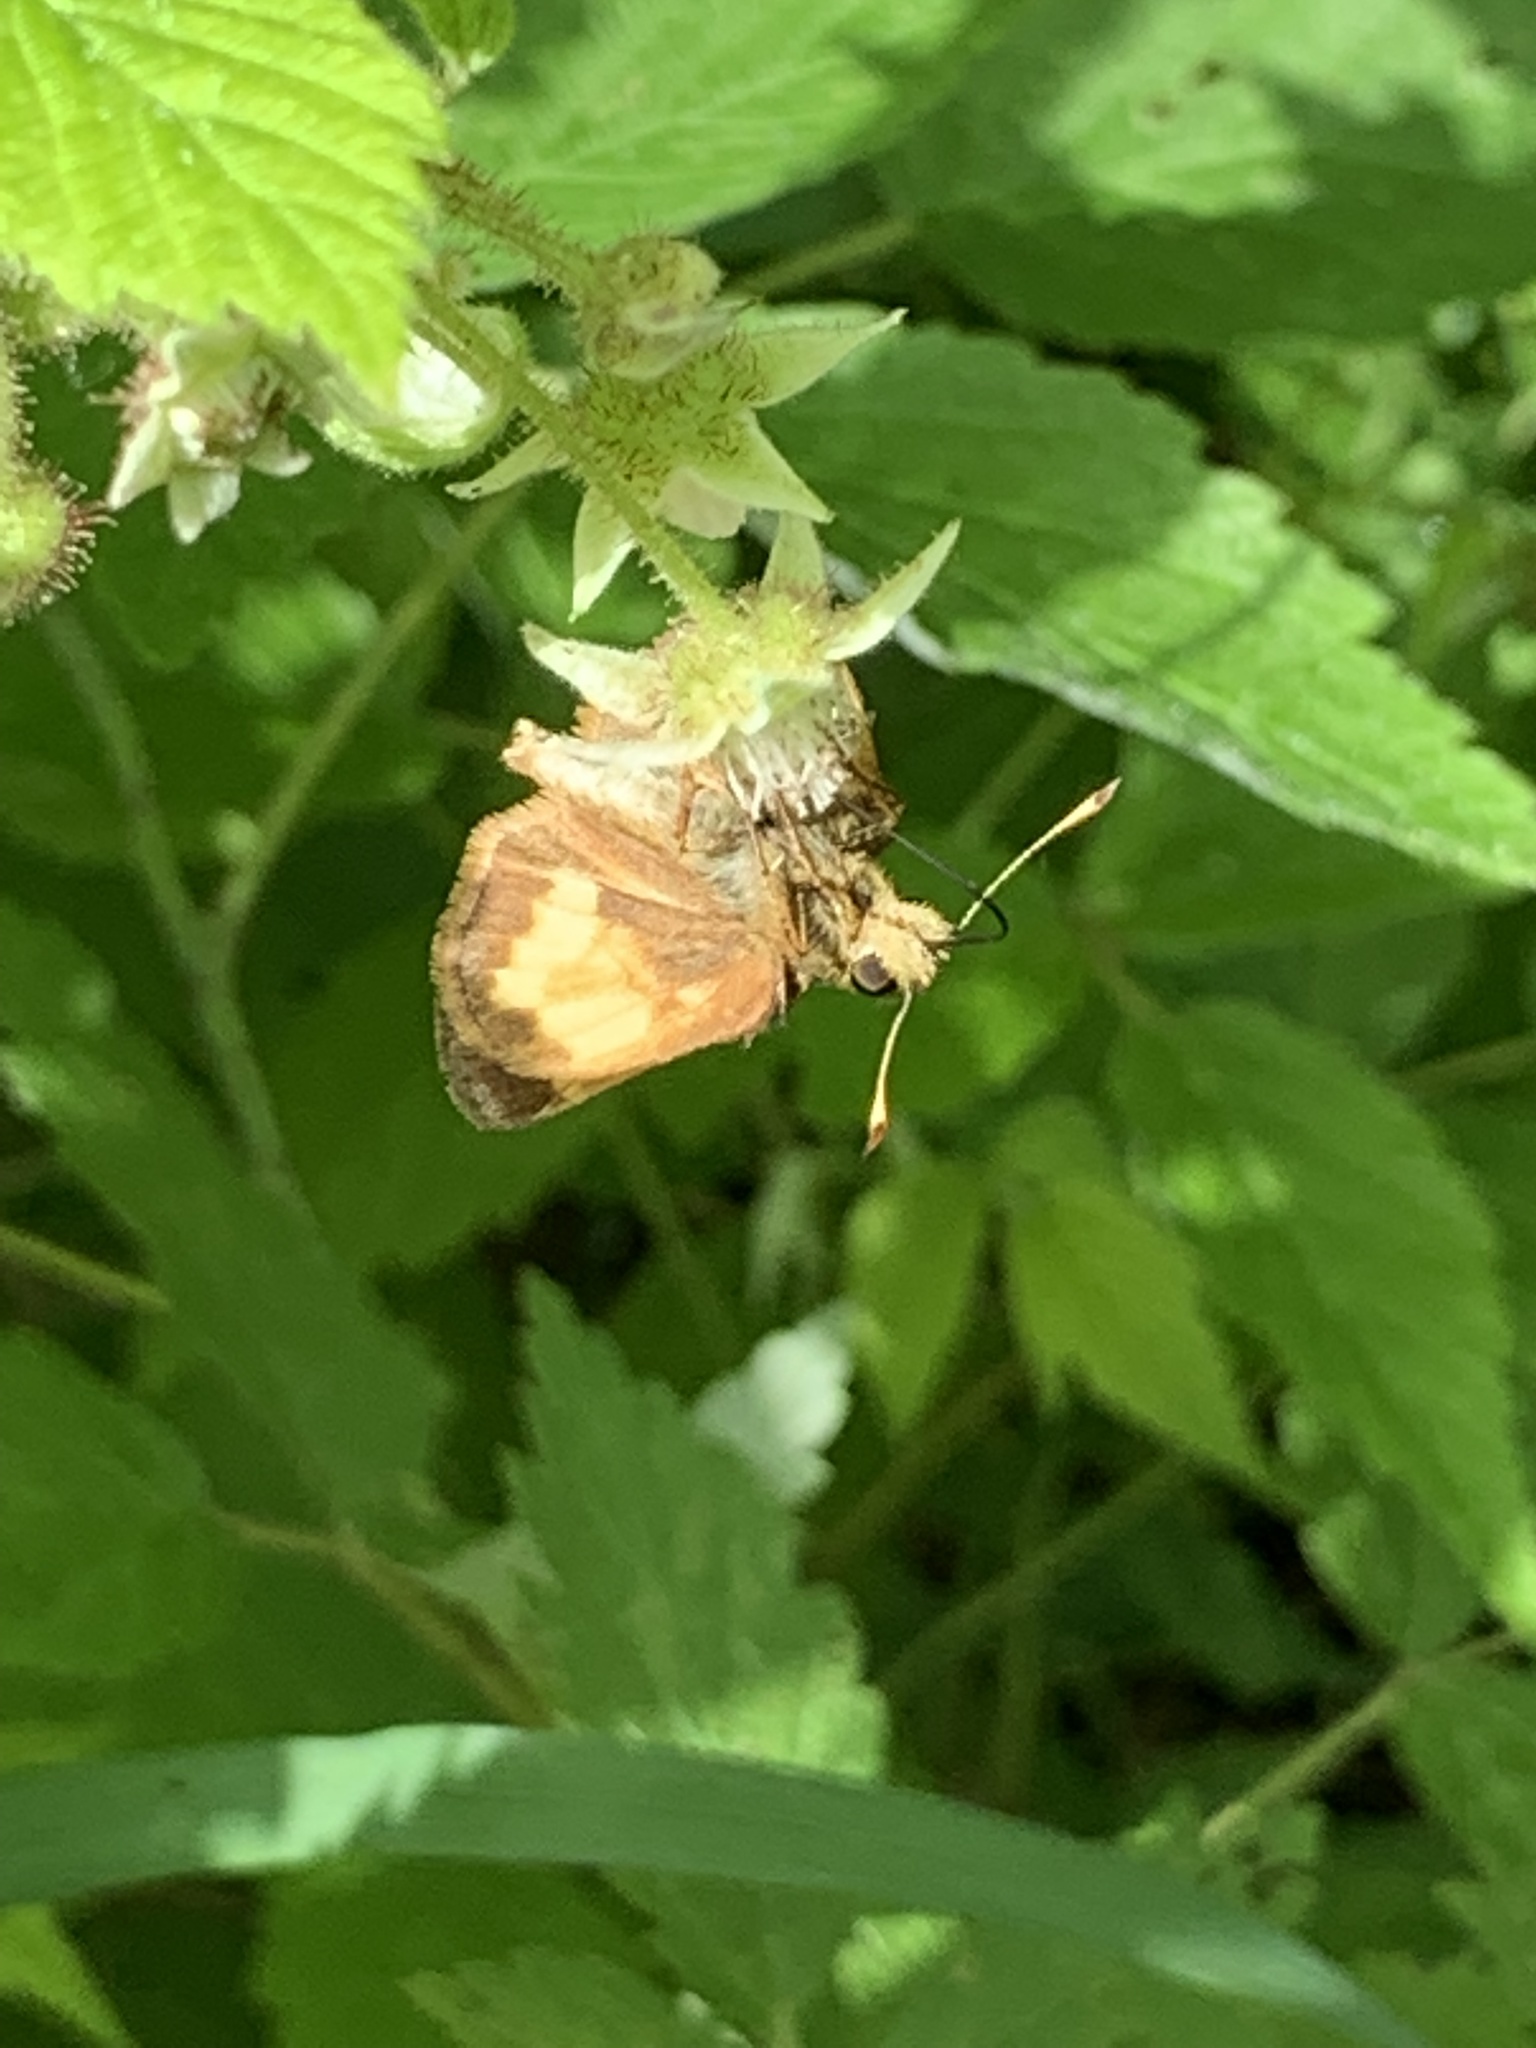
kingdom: Animalia
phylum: Arthropoda
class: Insecta
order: Lepidoptera
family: Hesperiidae
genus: Lon
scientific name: Lon hobomok
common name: Hobomok skipper
